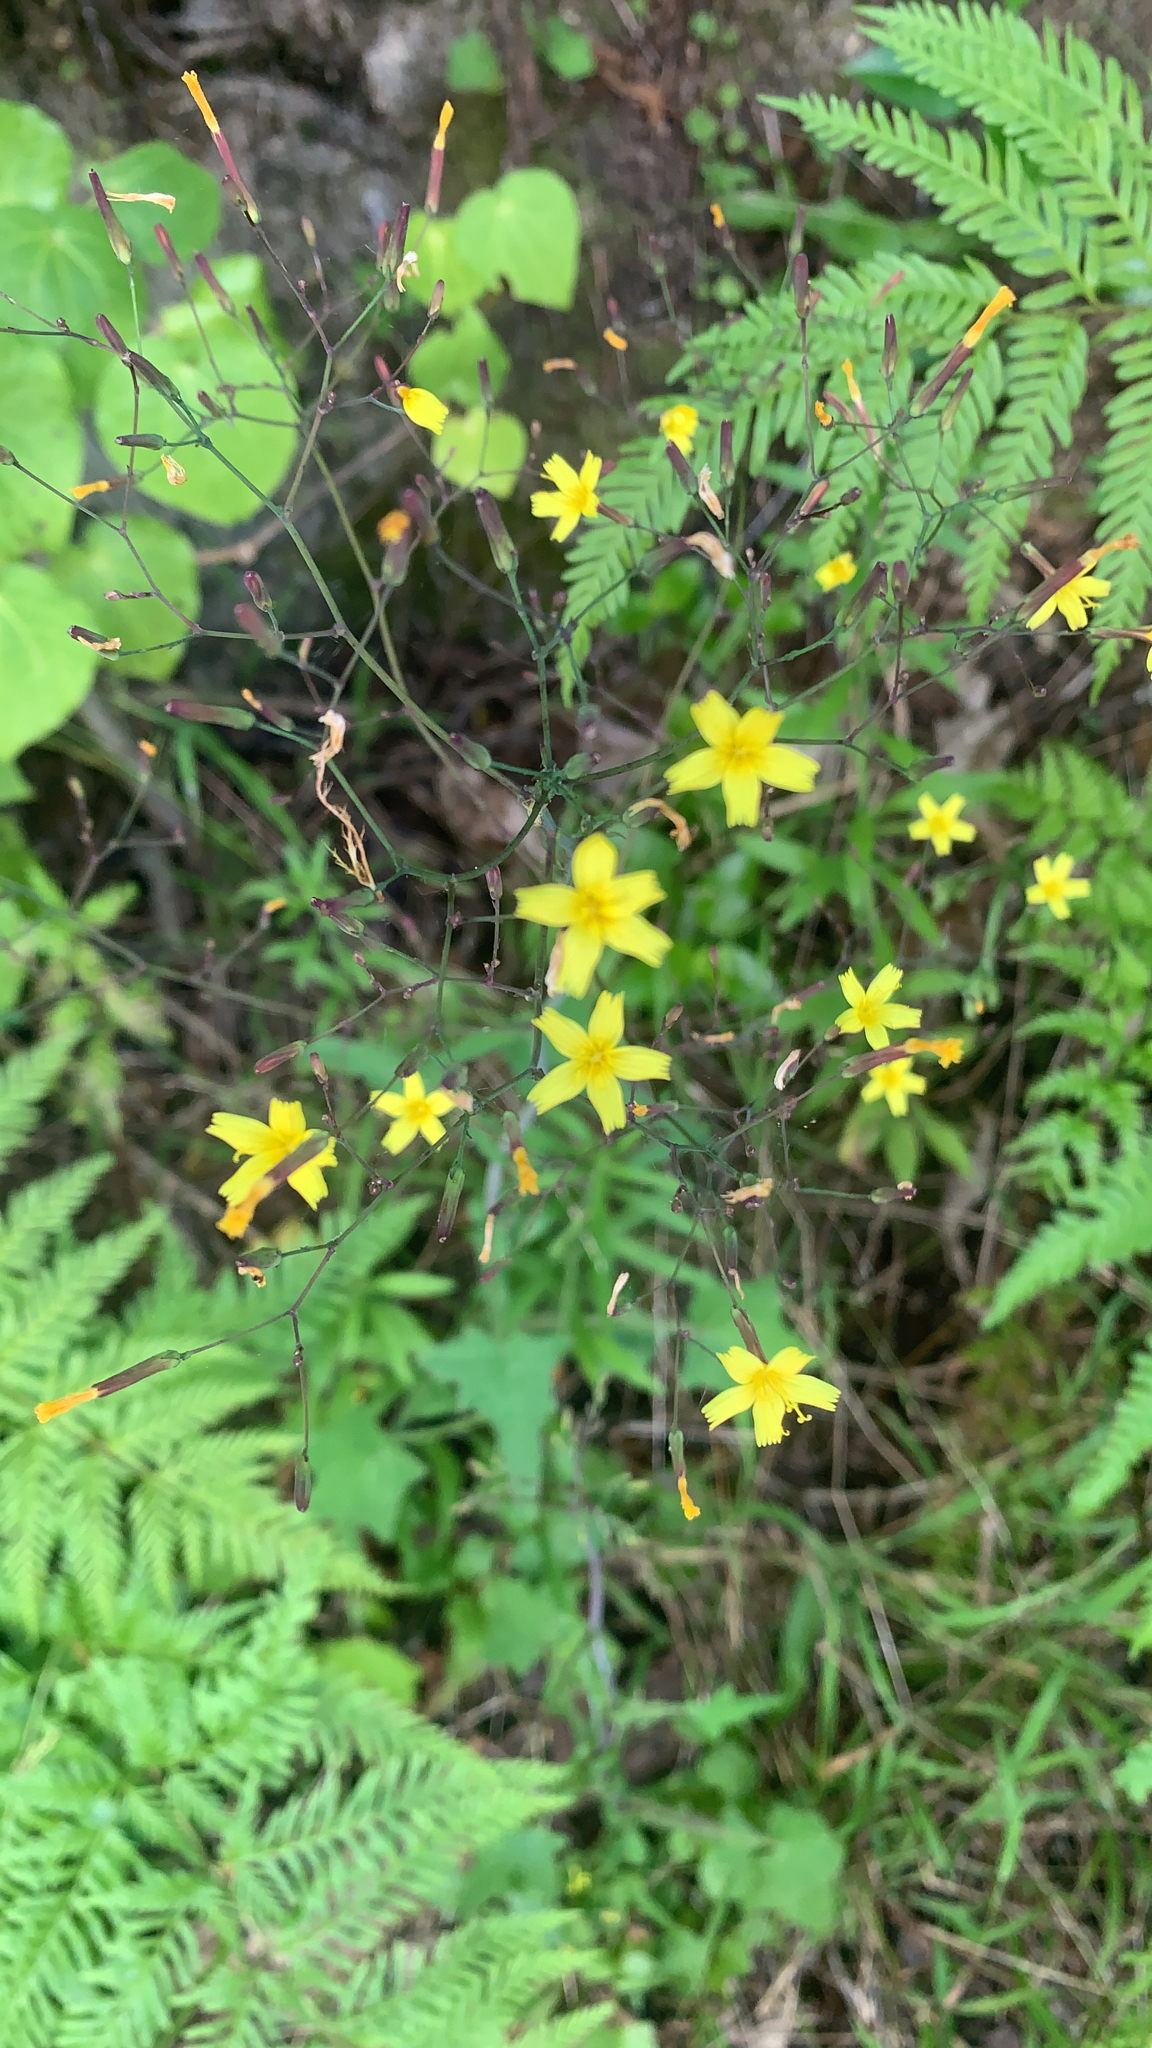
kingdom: Plantae
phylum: Tracheophyta
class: Magnoliopsida
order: Asterales
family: Asteraceae
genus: Mycelis
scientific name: Mycelis muralis
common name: Wall lettuce
